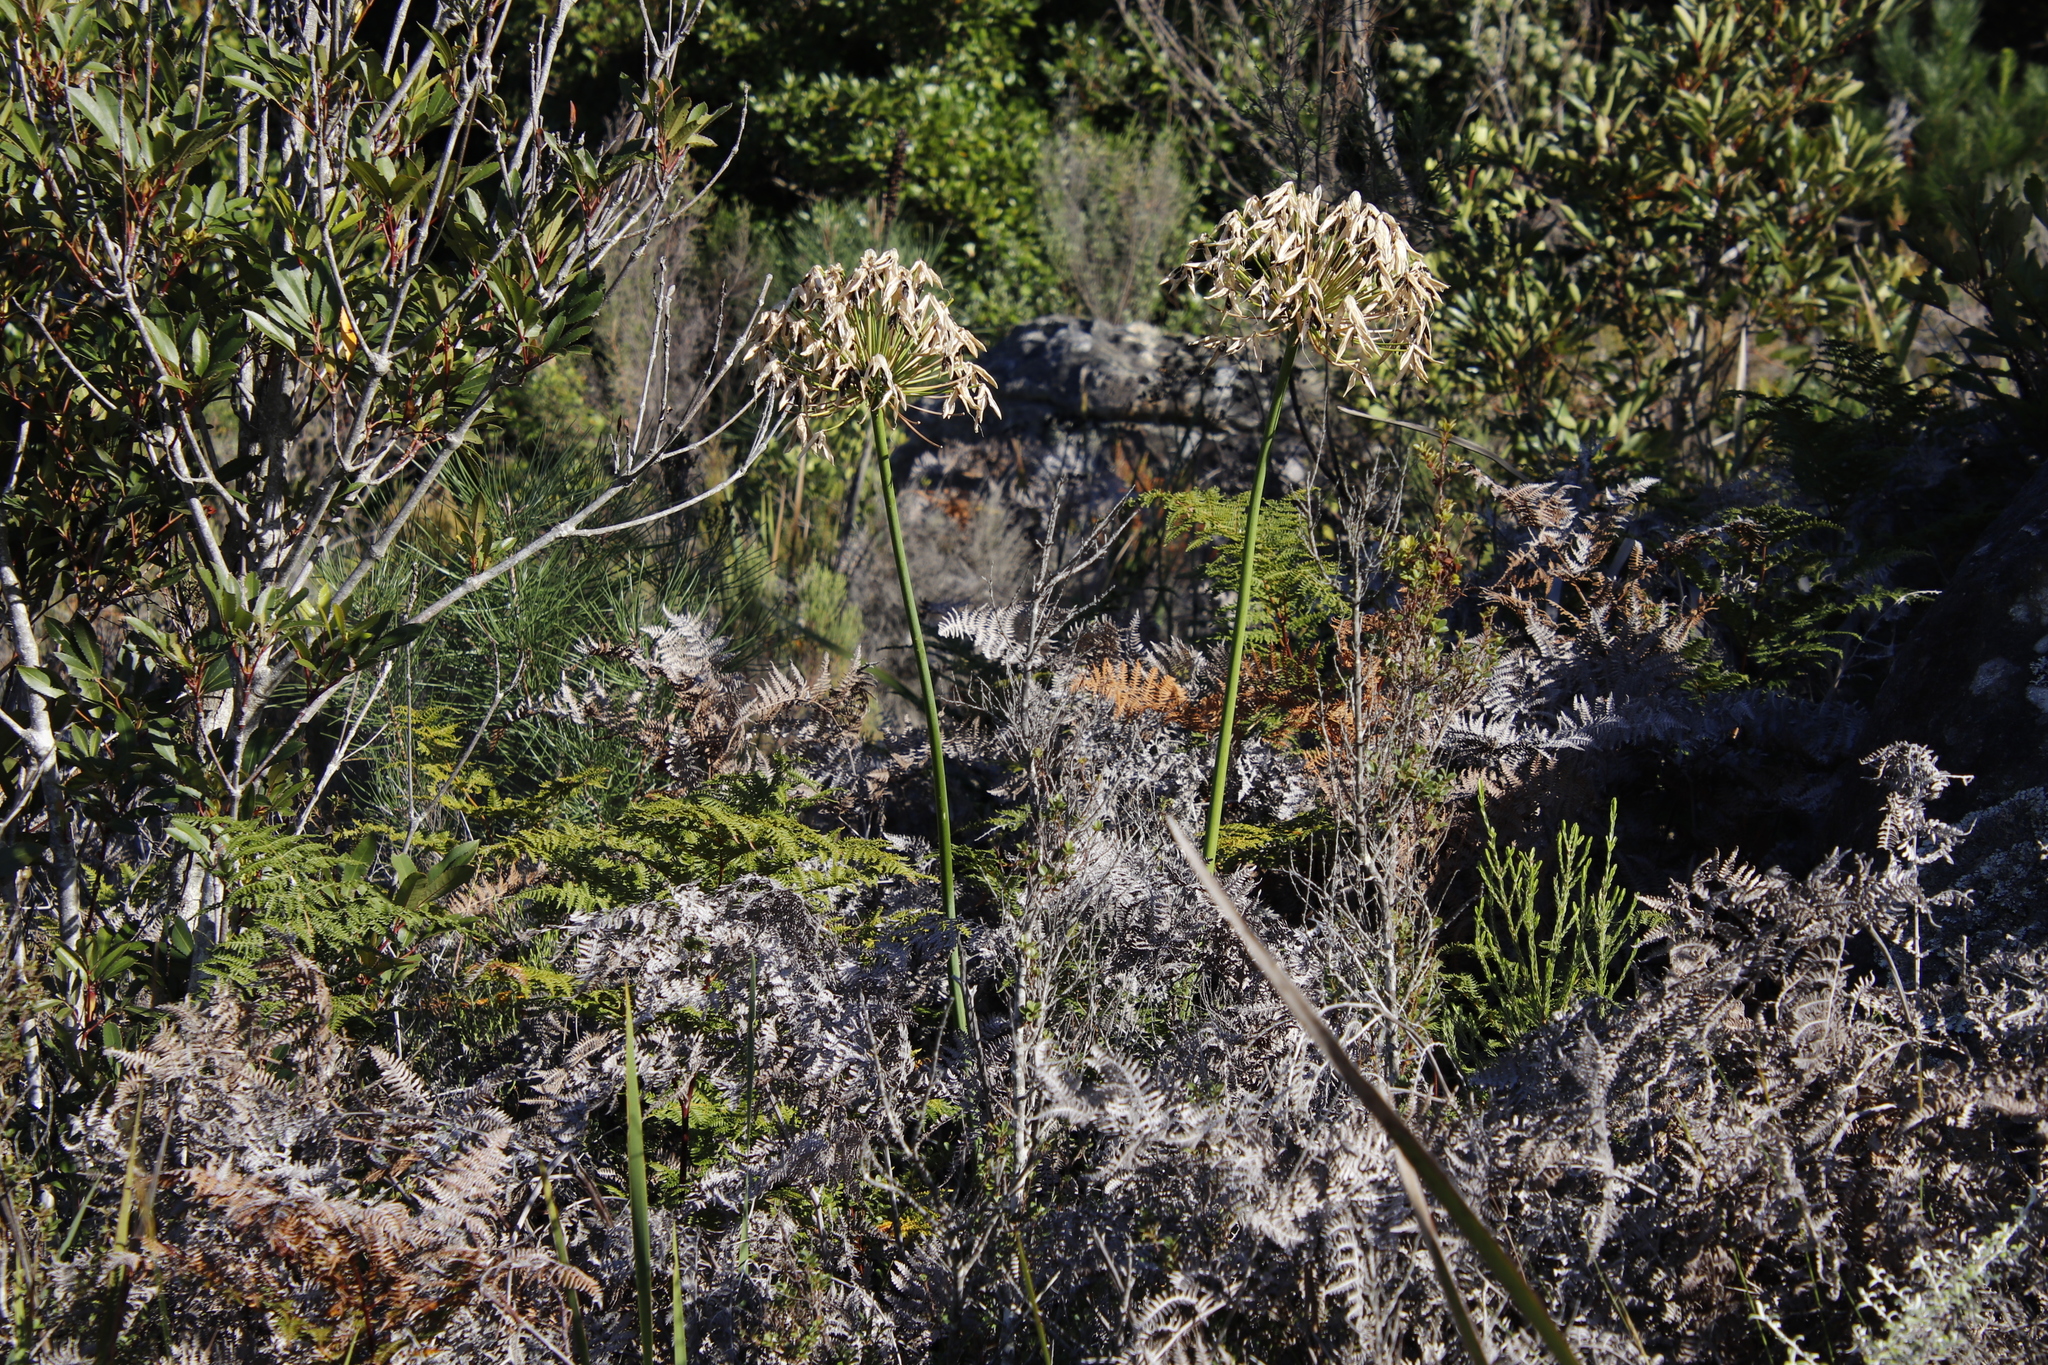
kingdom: Plantae
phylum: Tracheophyta
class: Liliopsida
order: Asparagales
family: Amaryllidaceae
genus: Agapanthus
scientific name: Agapanthus praecox
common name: African-lily
